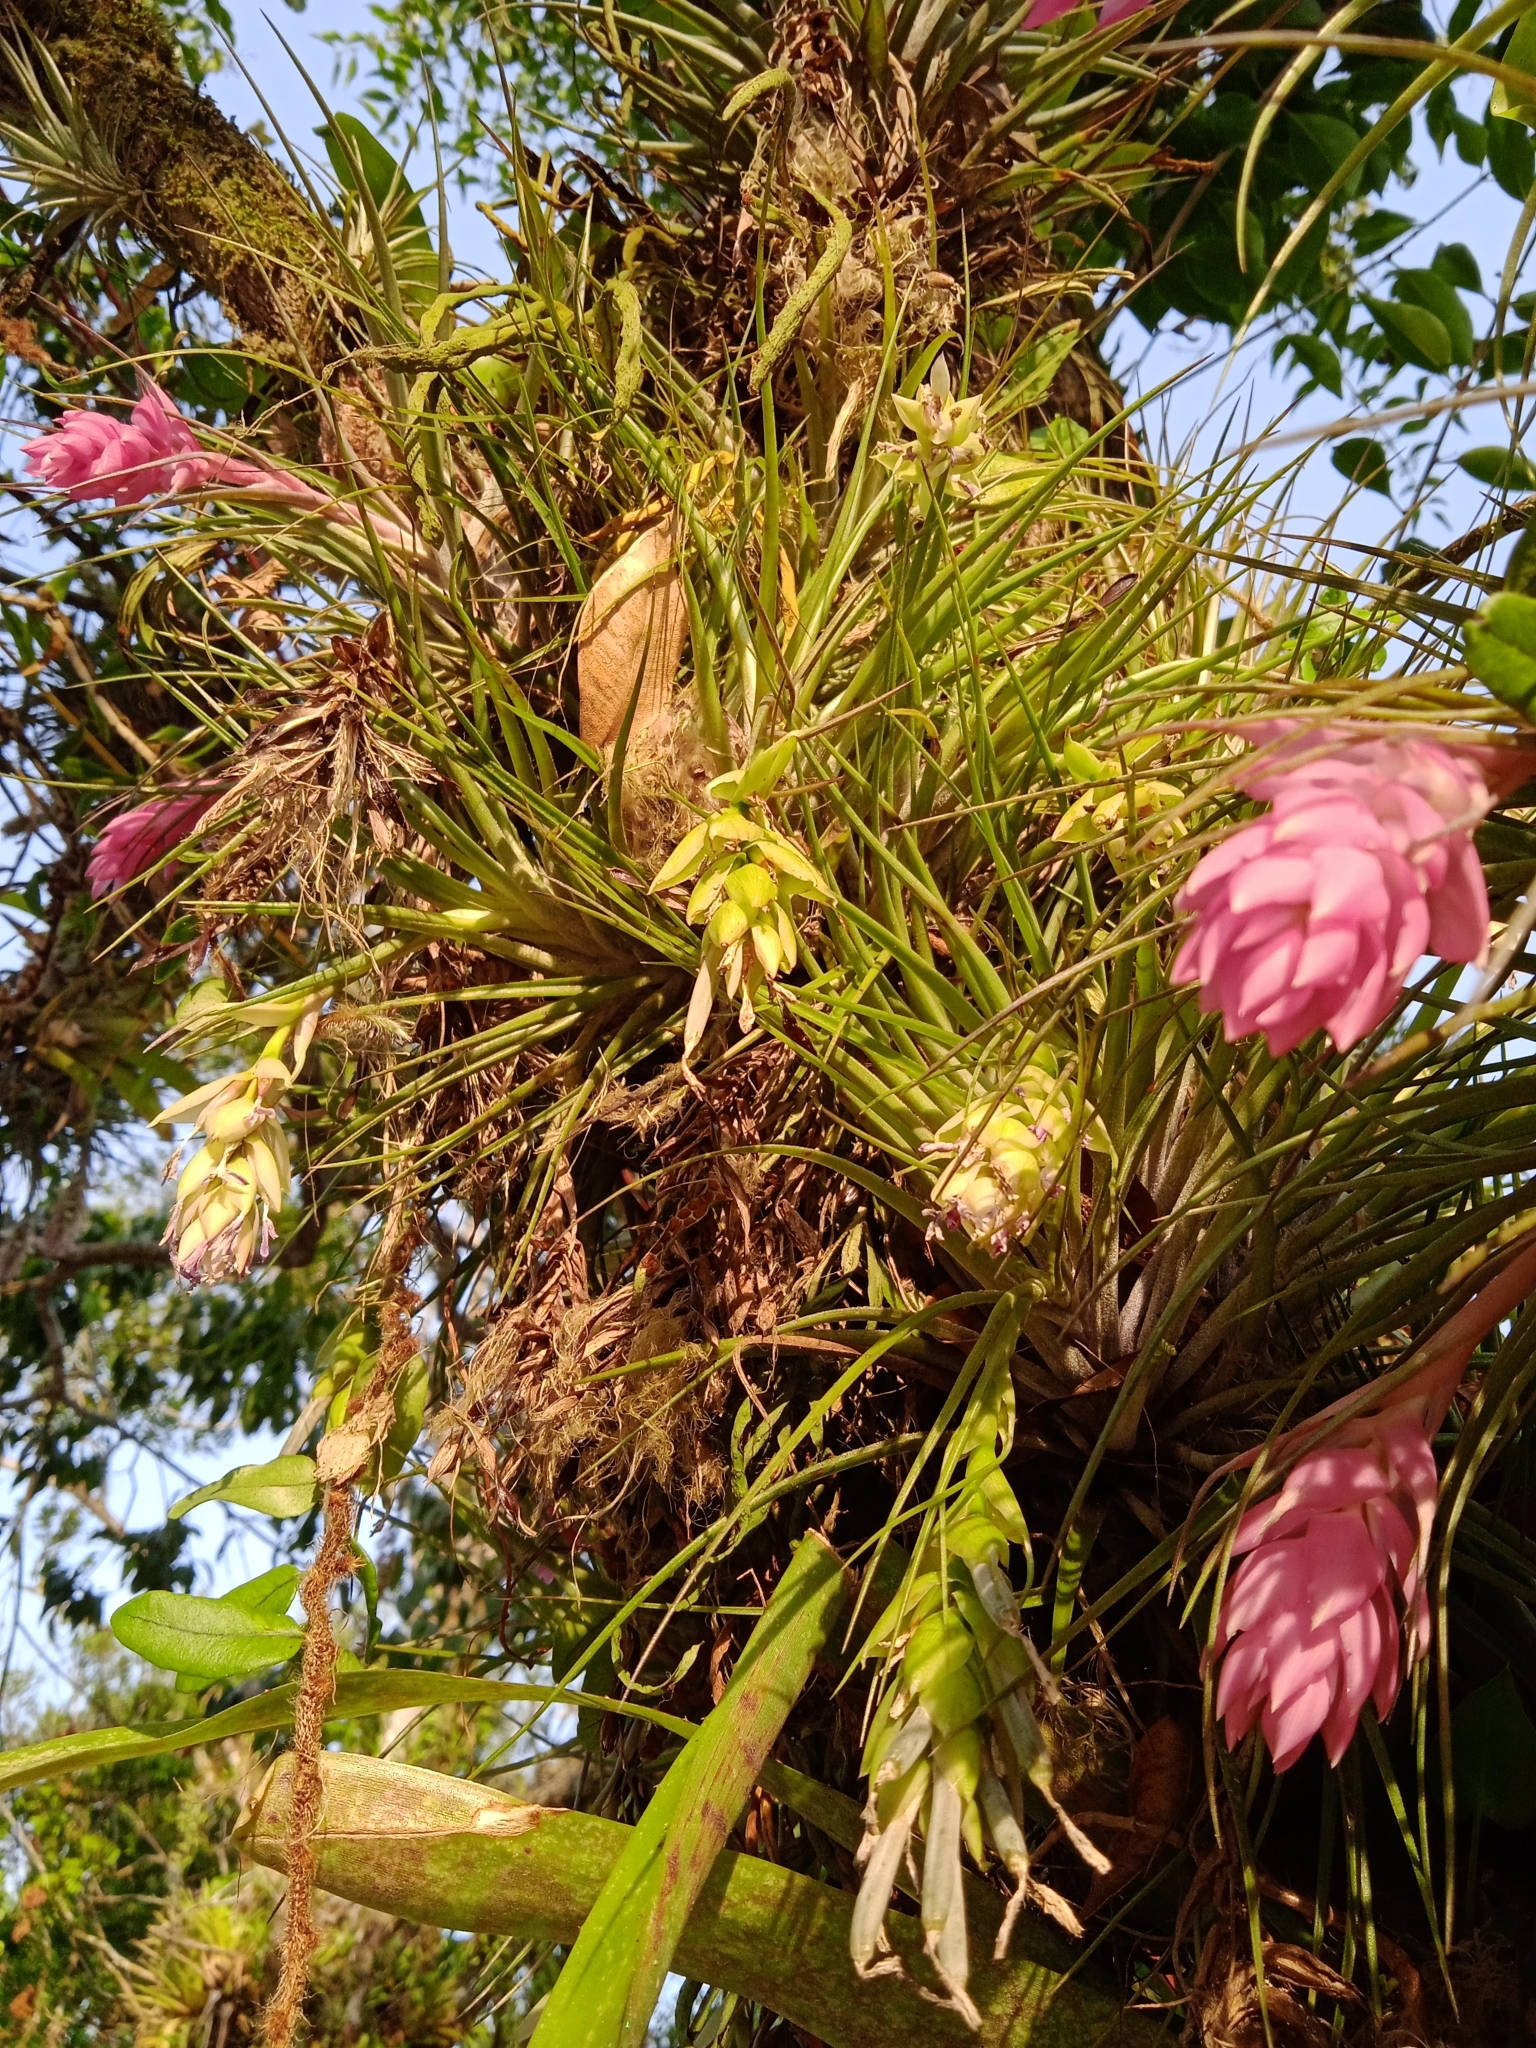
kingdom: Plantae
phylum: Tracheophyta
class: Liliopsida
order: Poales
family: Bromeliaceae
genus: Tillandsia
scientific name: Tillandsia stricta
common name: Airplant
